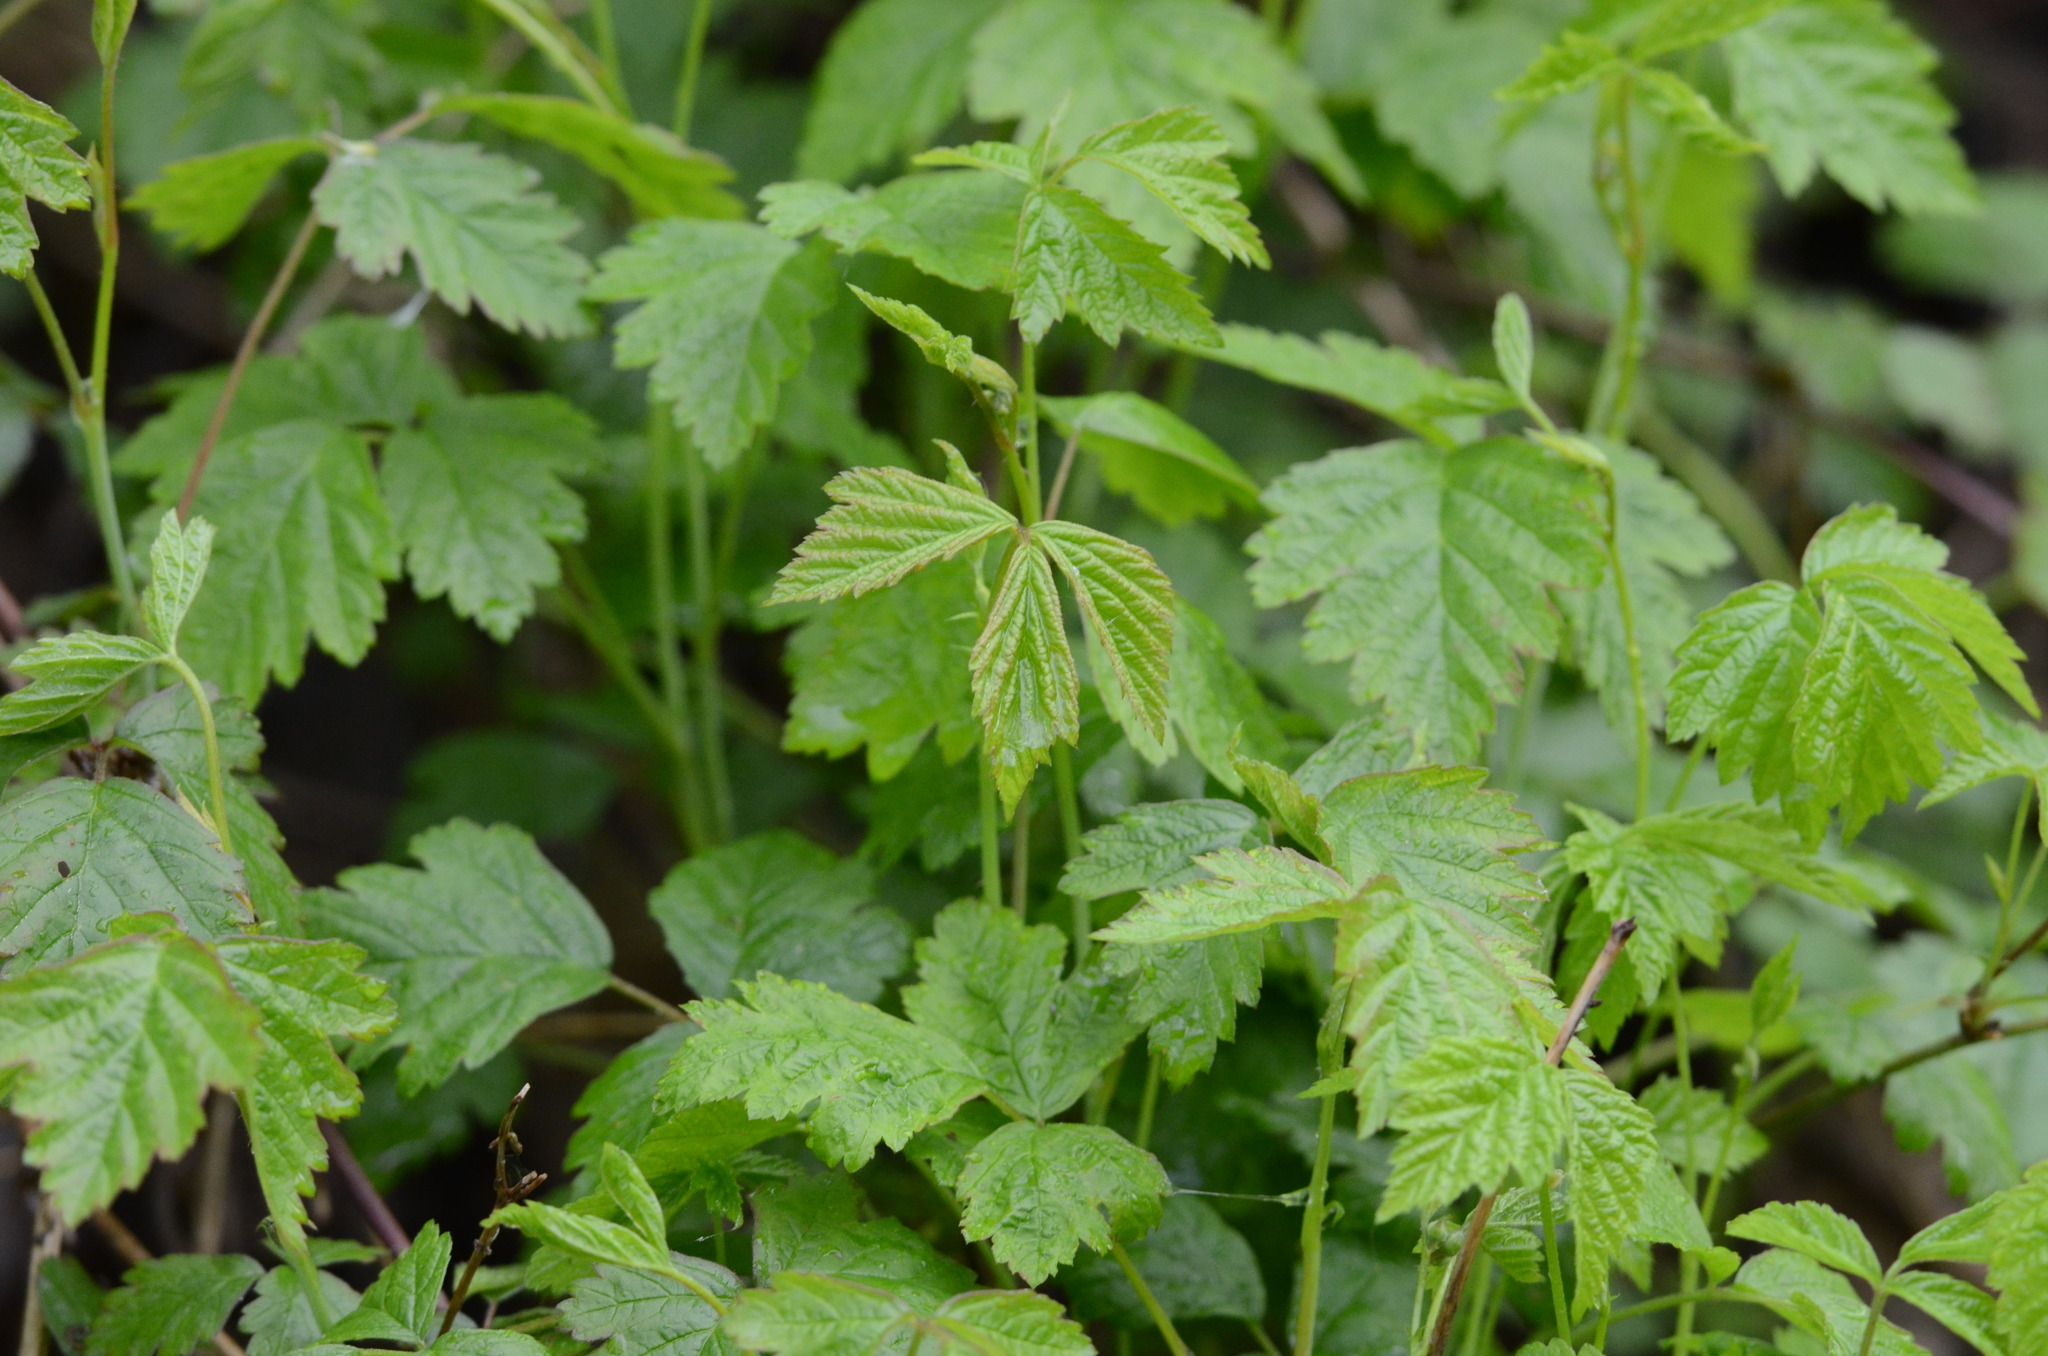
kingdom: Plantae
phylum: Tracheophyta
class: Magnoliopsida
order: Rosales
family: Rosaceae
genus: Rubus
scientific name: Rubus caesius
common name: Dewberry
